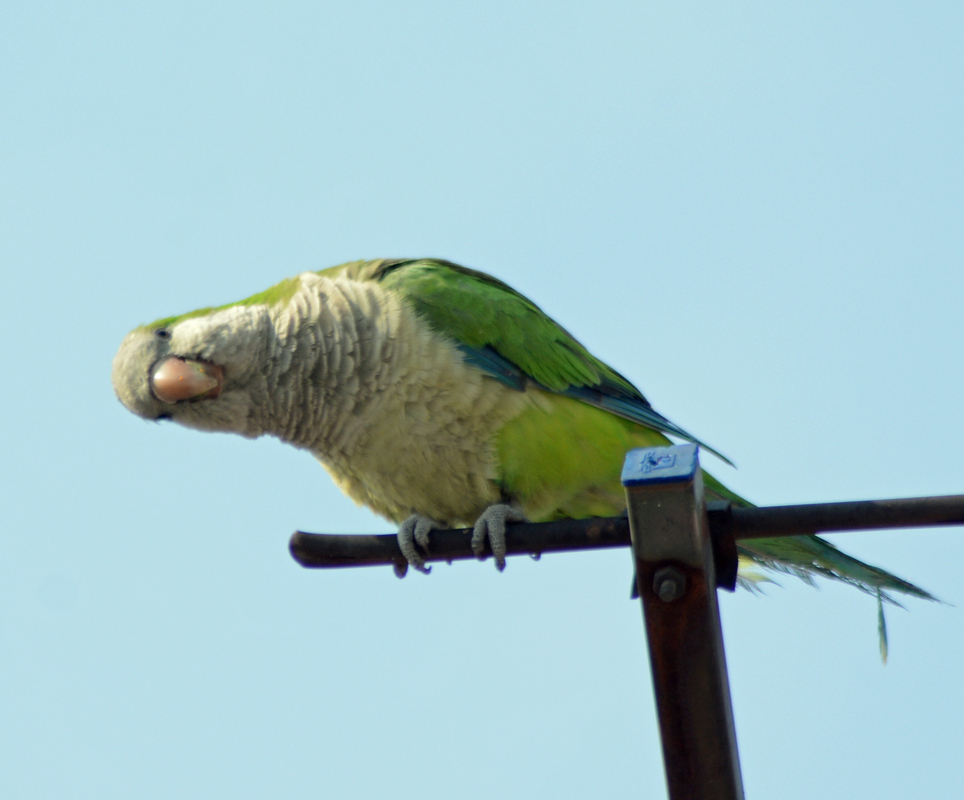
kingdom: Animalia
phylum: Chordata
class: Aves
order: Psittaciformes
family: Psittacidae
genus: Myiopsitta
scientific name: Myiopsitta monachus
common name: Monk parakeet
